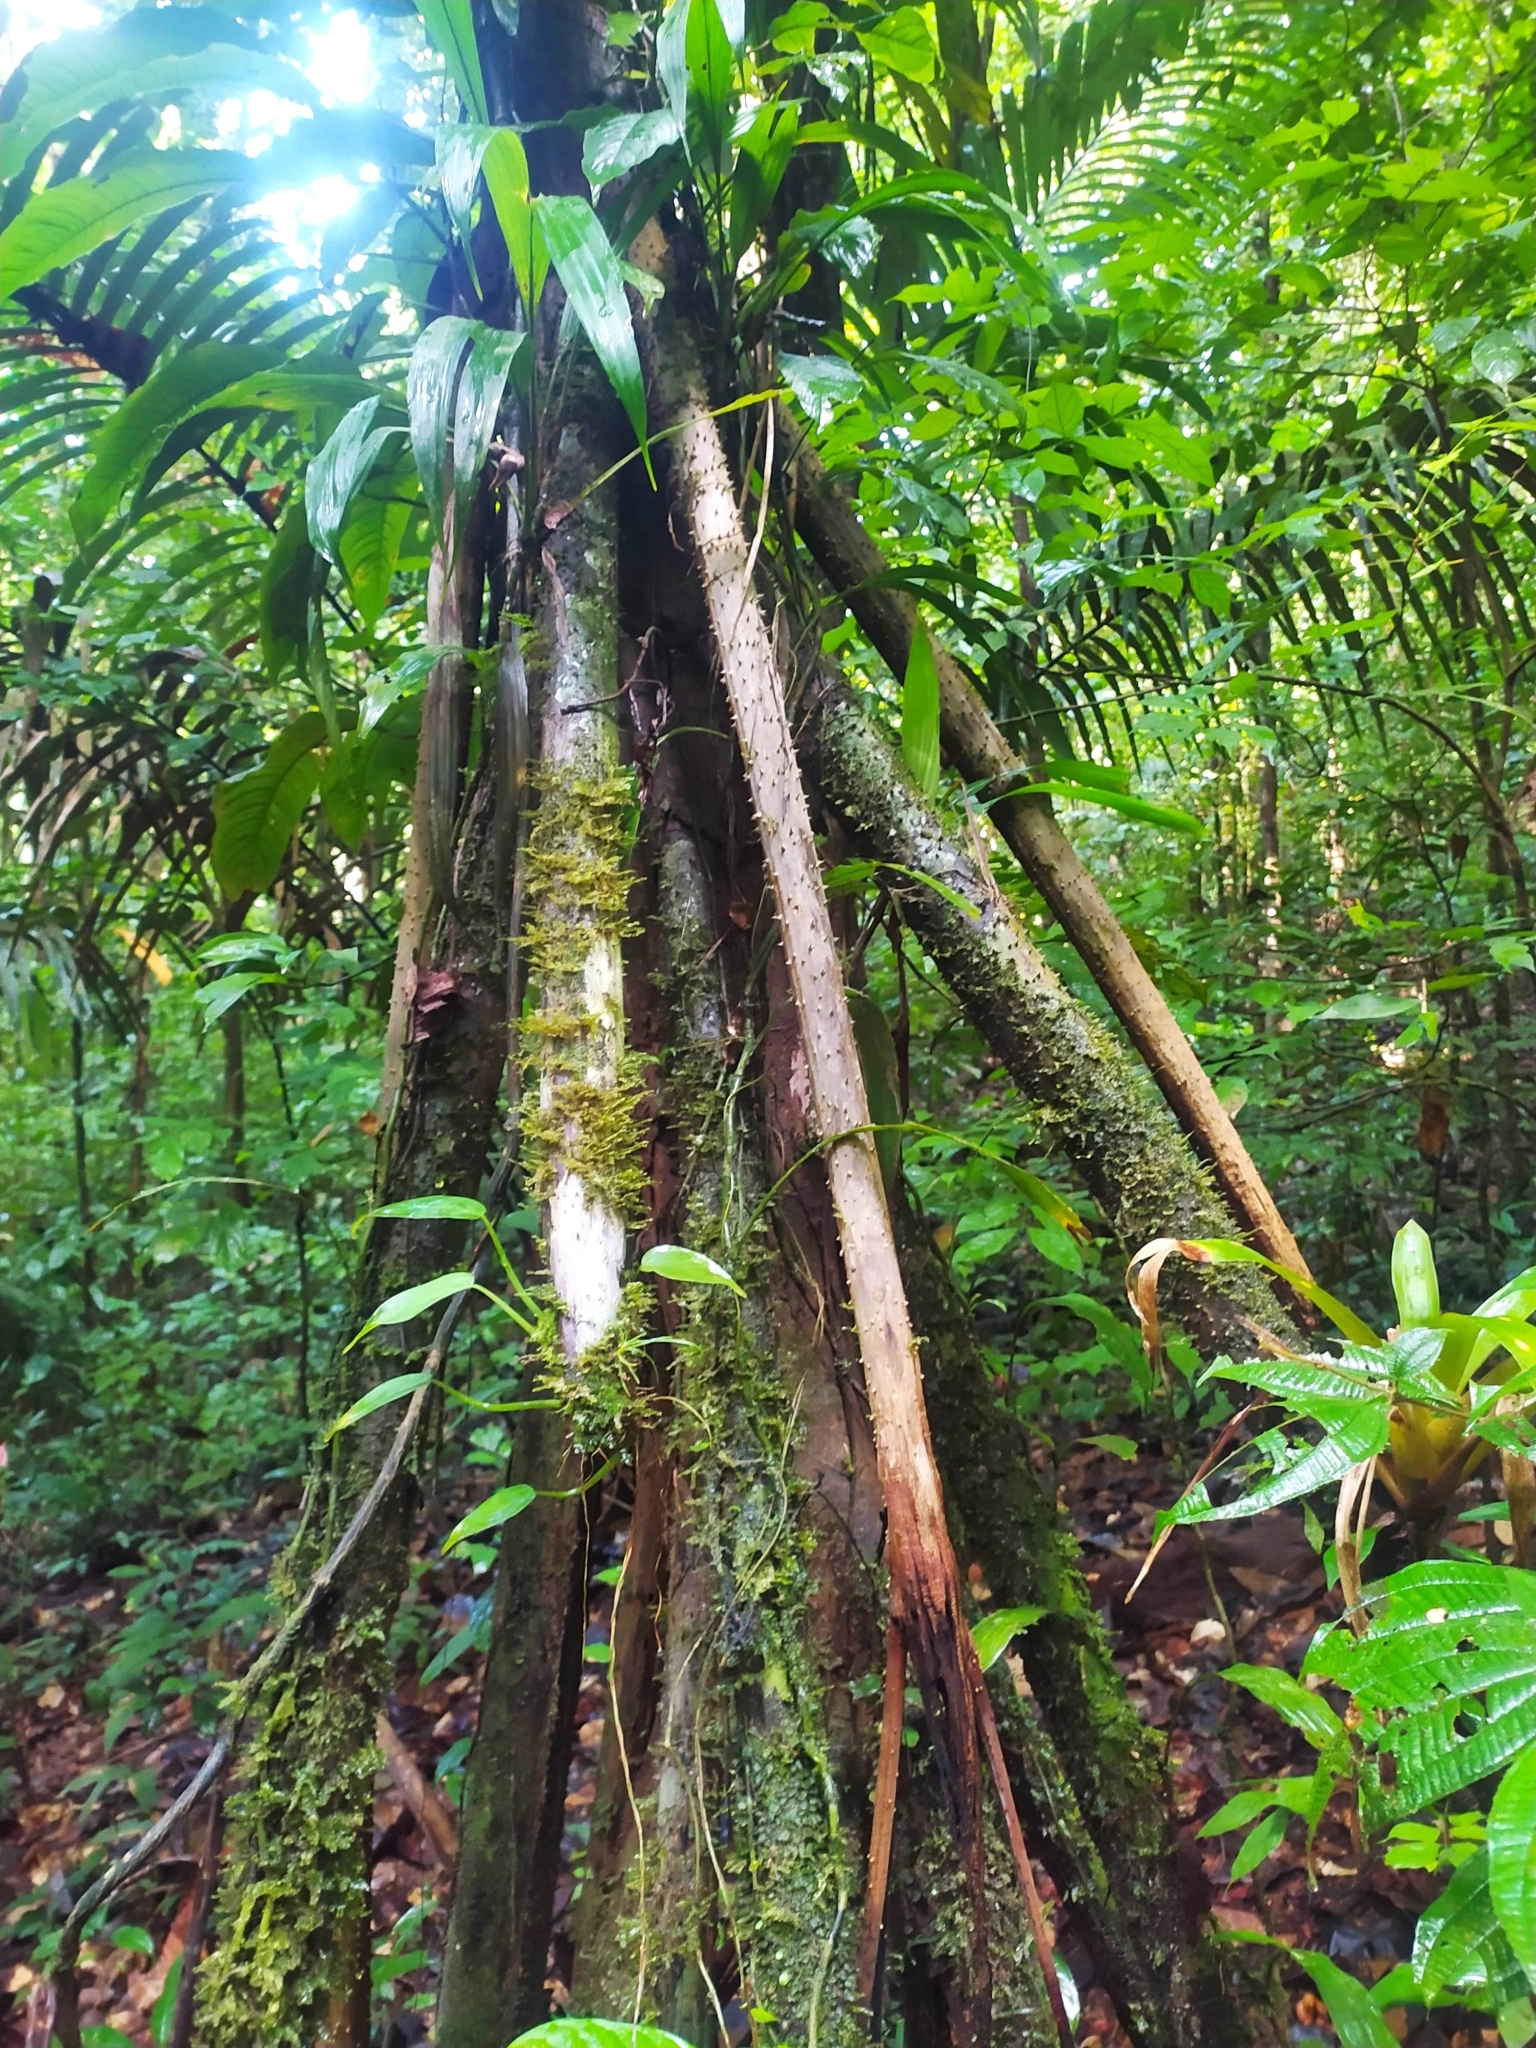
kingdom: Plantae
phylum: Tracheophyta
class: Liliopsida
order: Arecales
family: Arecaceae
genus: Socratea
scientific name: Socratea exorrhiza
